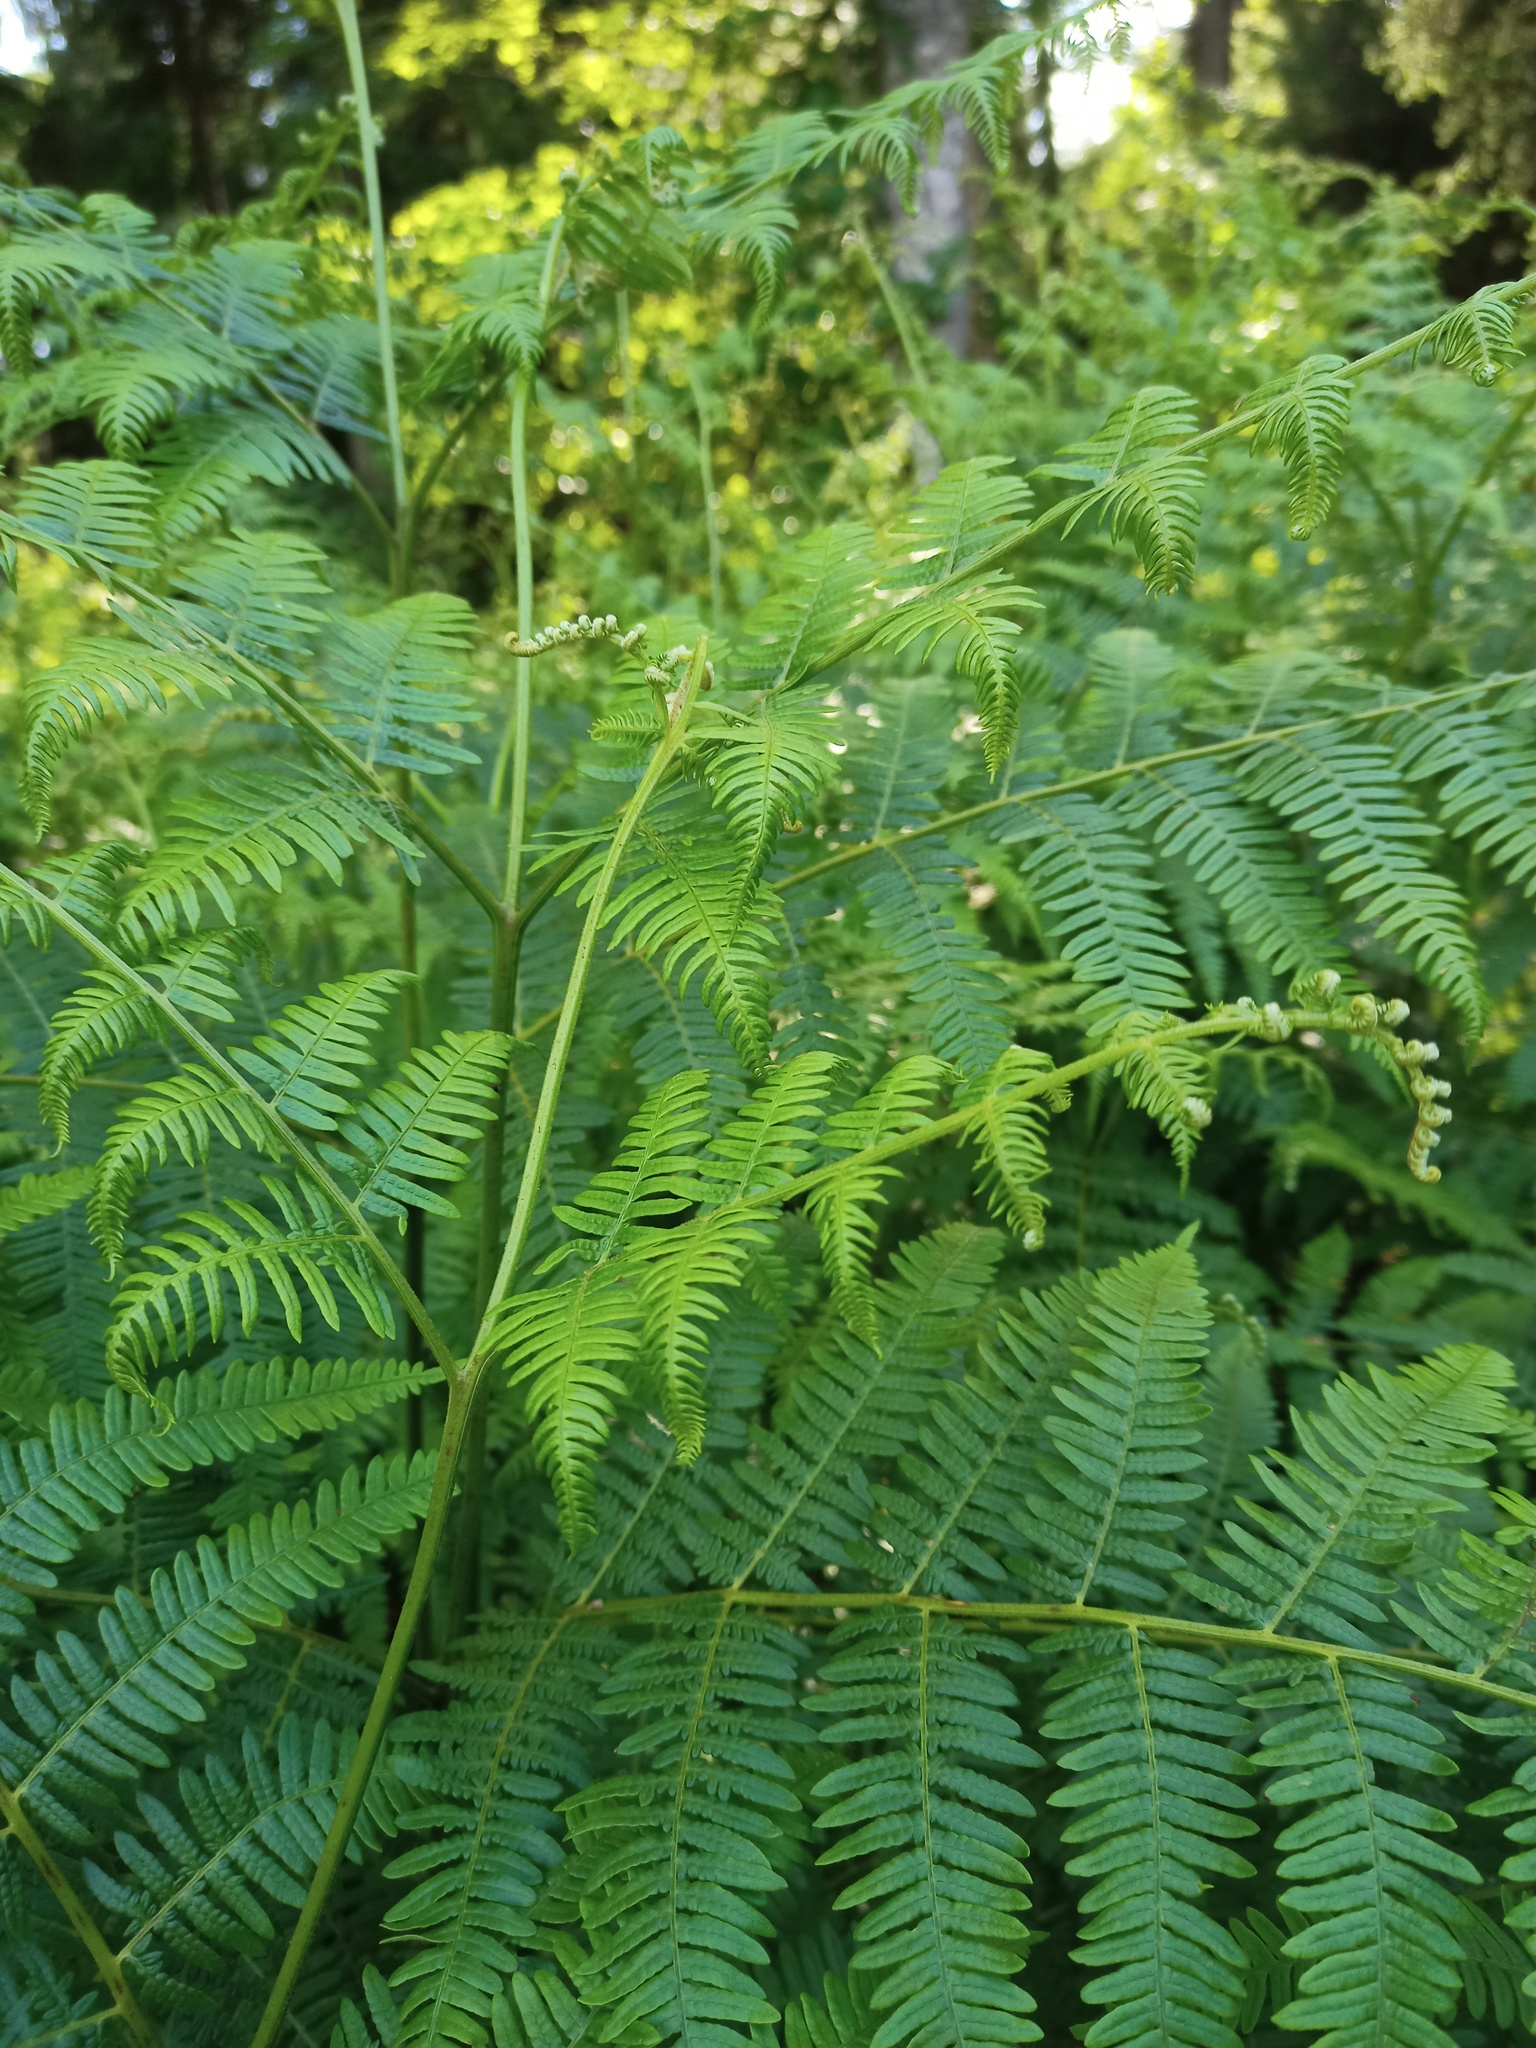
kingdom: Plantae
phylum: Tracheophyta
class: Polypodiopsida
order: Polypodiales
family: Dennstaedtiaceae
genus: Pteridium
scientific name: Pteridium aquilinum
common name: Bracken
